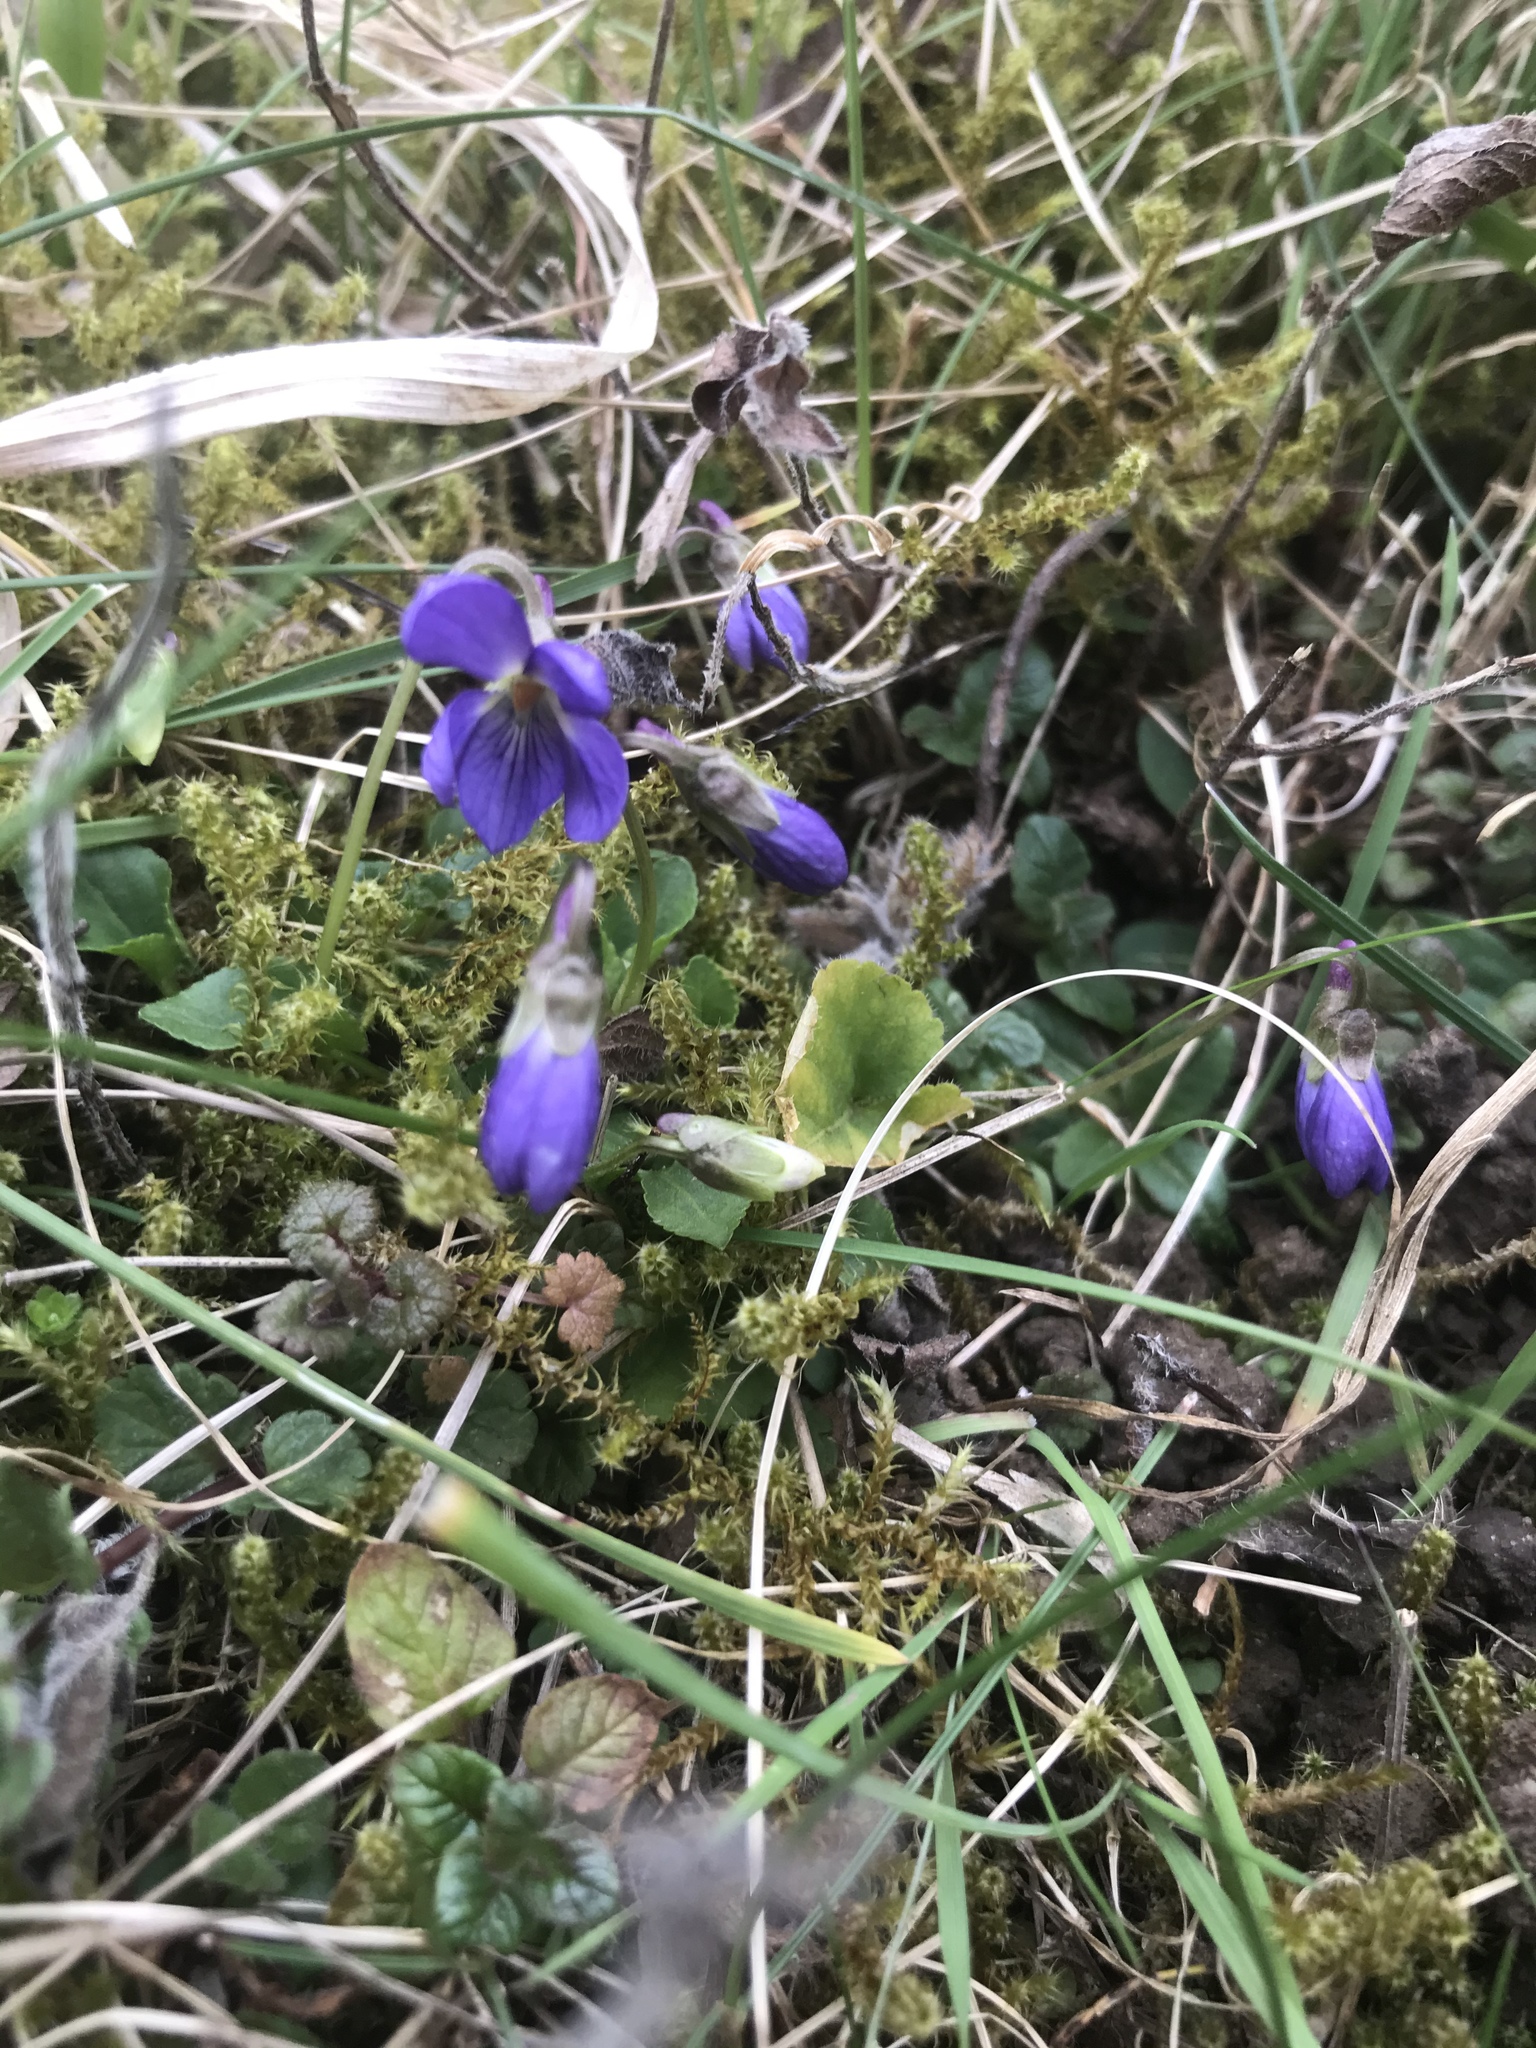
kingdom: Plantae
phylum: Tracheophyta
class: Magnoliopsida
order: Malpighiales
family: Violaceae
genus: Viola
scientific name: Viola odorata
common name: Sweet violet
